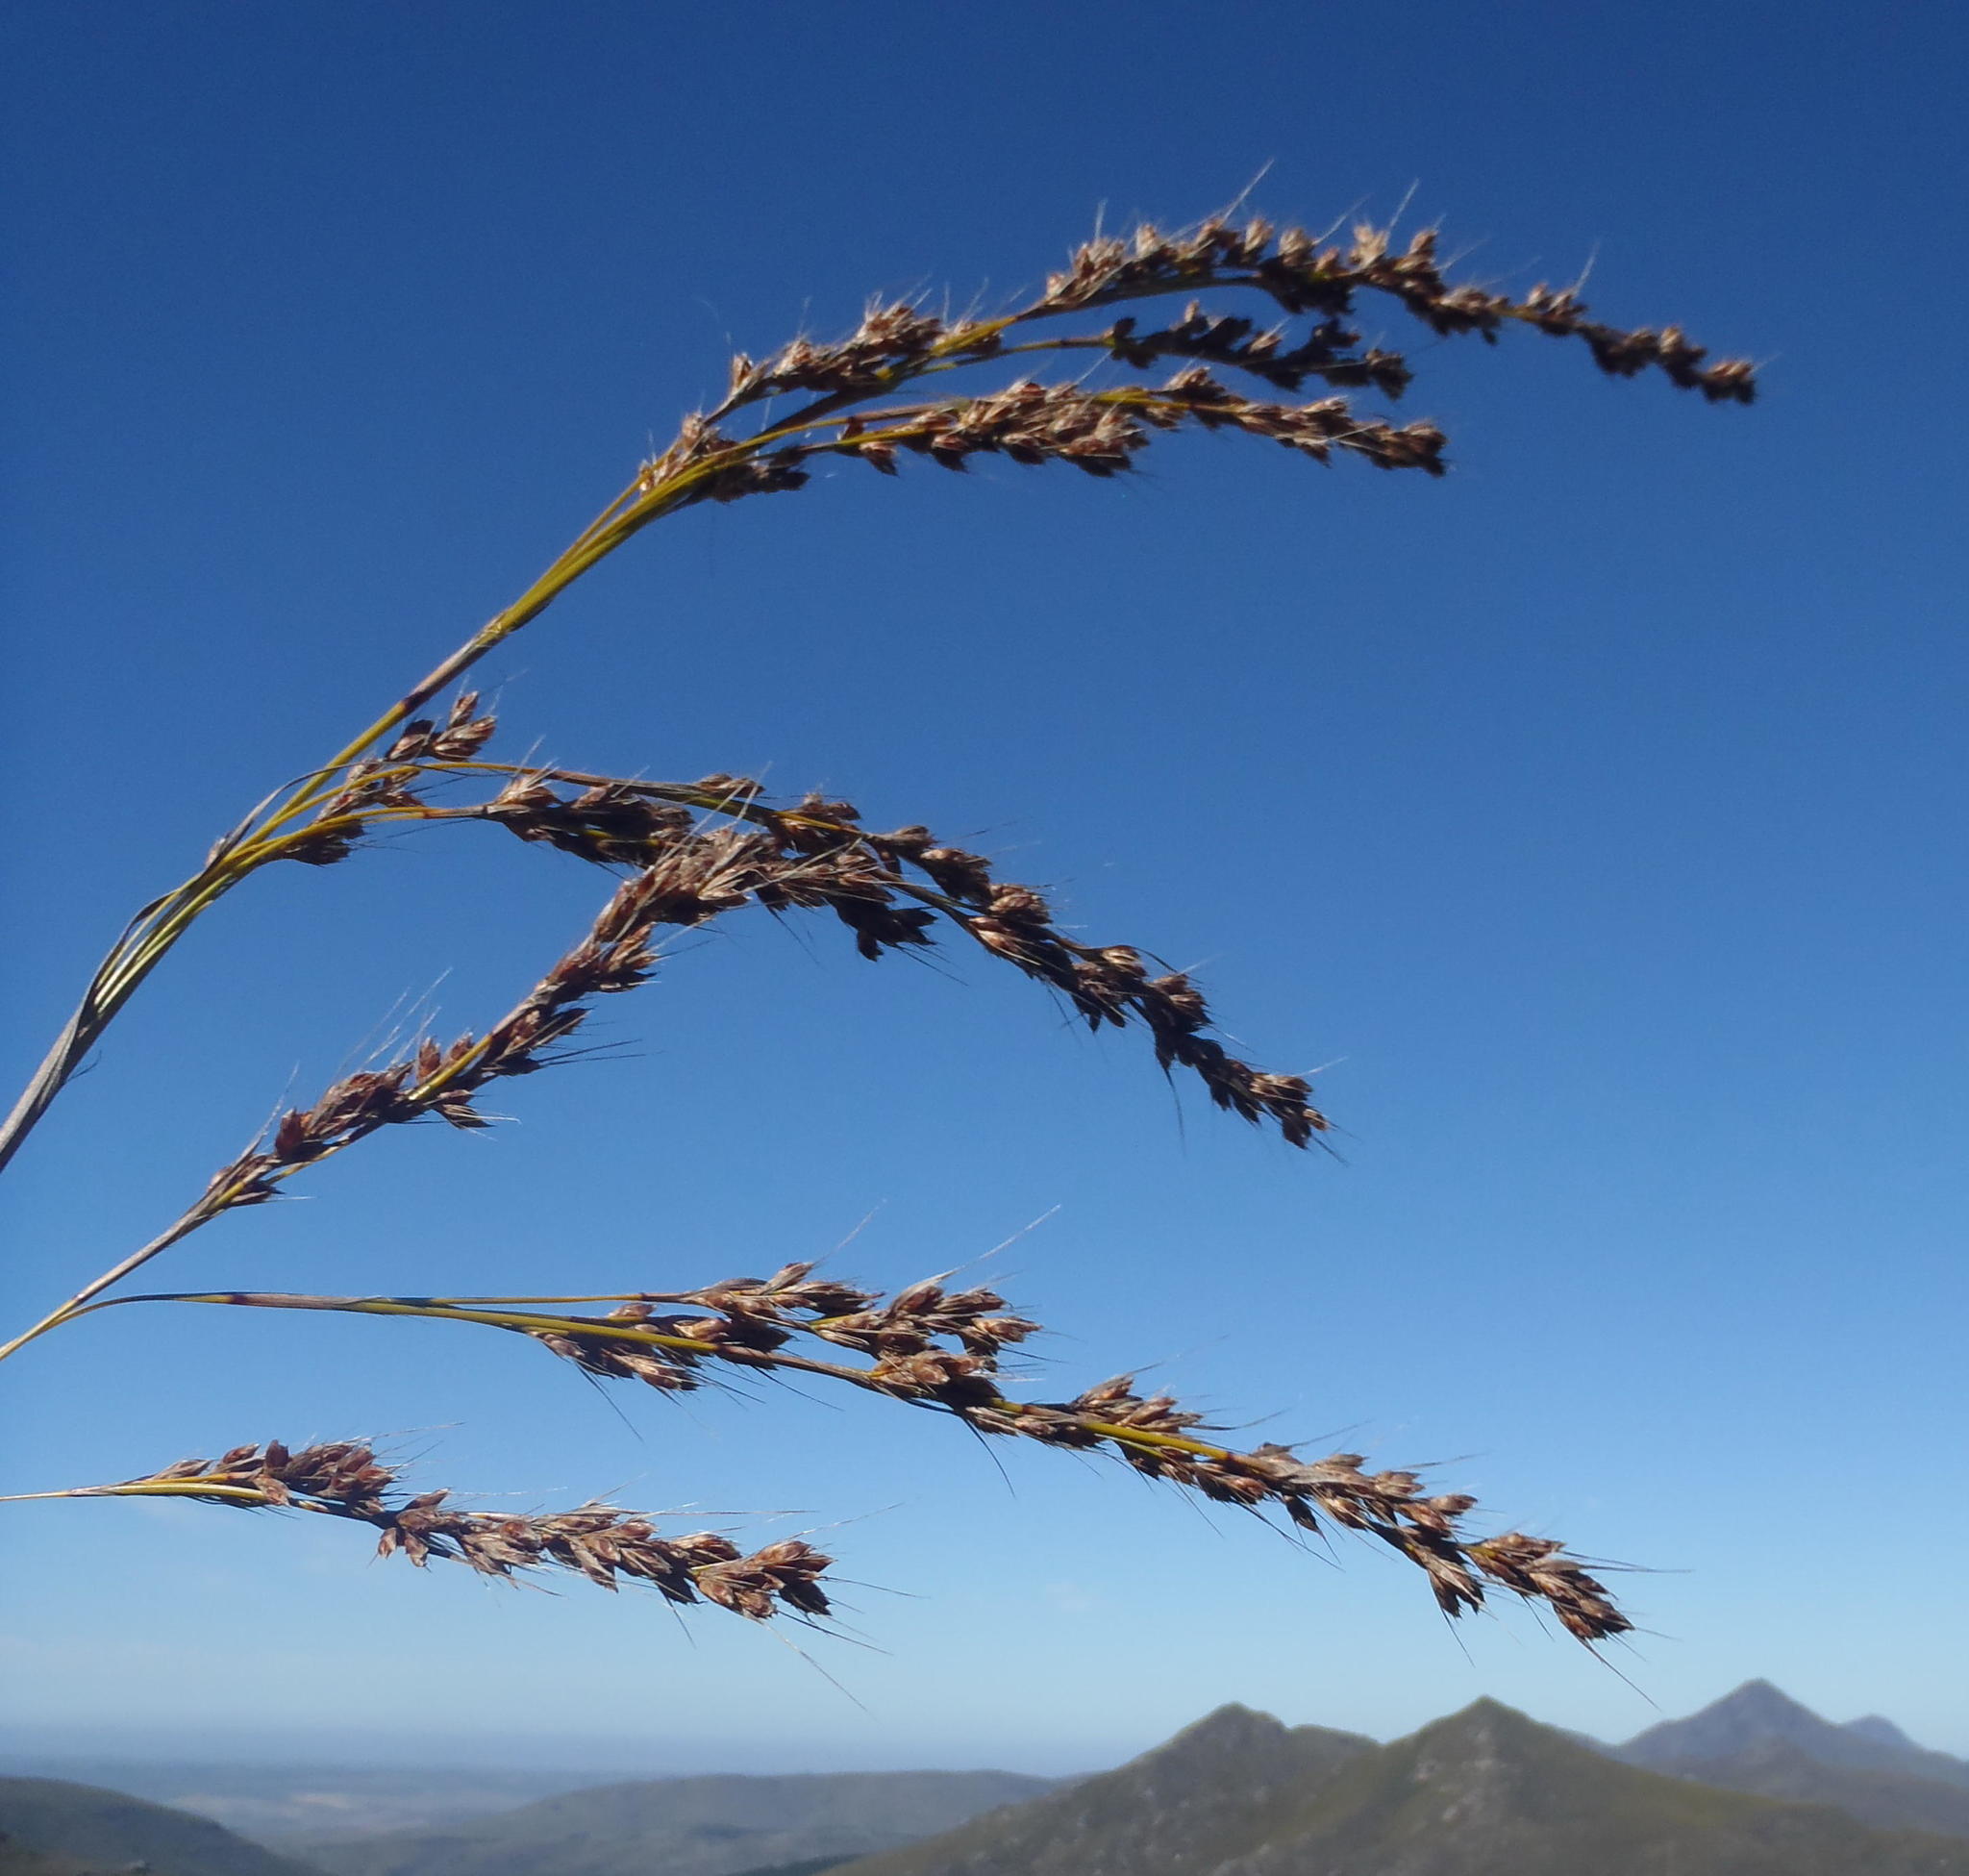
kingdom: Plantae
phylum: Tracheophyta
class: Liliopsida
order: Poales
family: Cyperaceae
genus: Tetraria
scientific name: Tetraria involucrata
